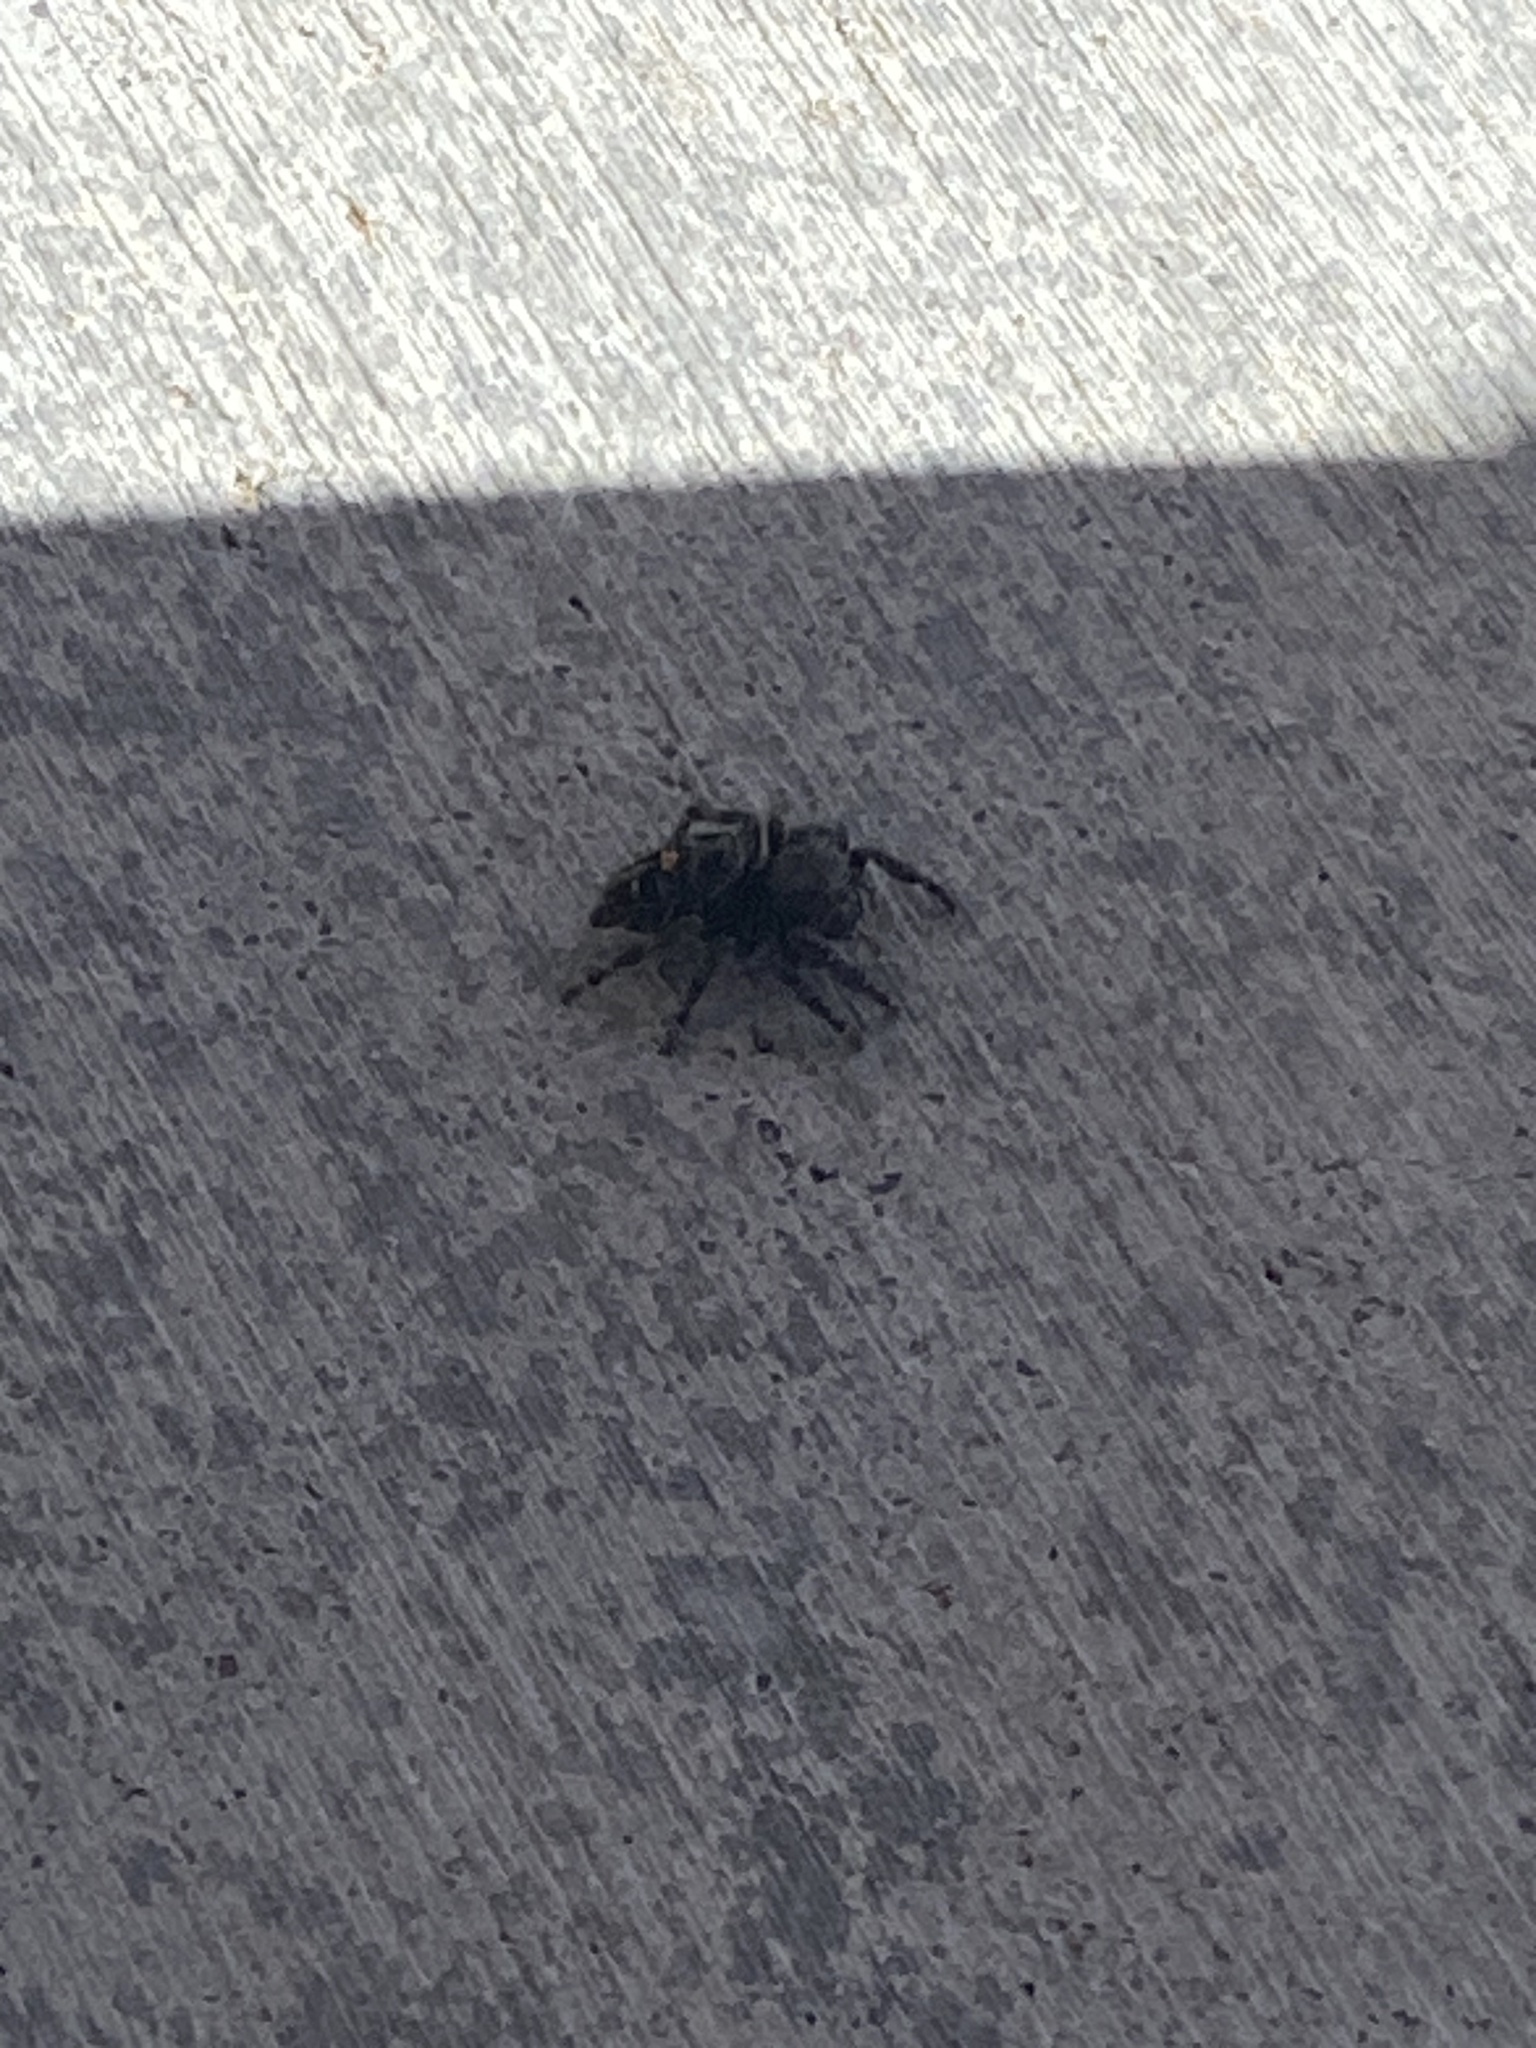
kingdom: Animalia
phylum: Arthropoda
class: Arachnida
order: Araneae
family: Salticidae
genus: Phidippus
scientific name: Phidippus audax
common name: Bold jumper
